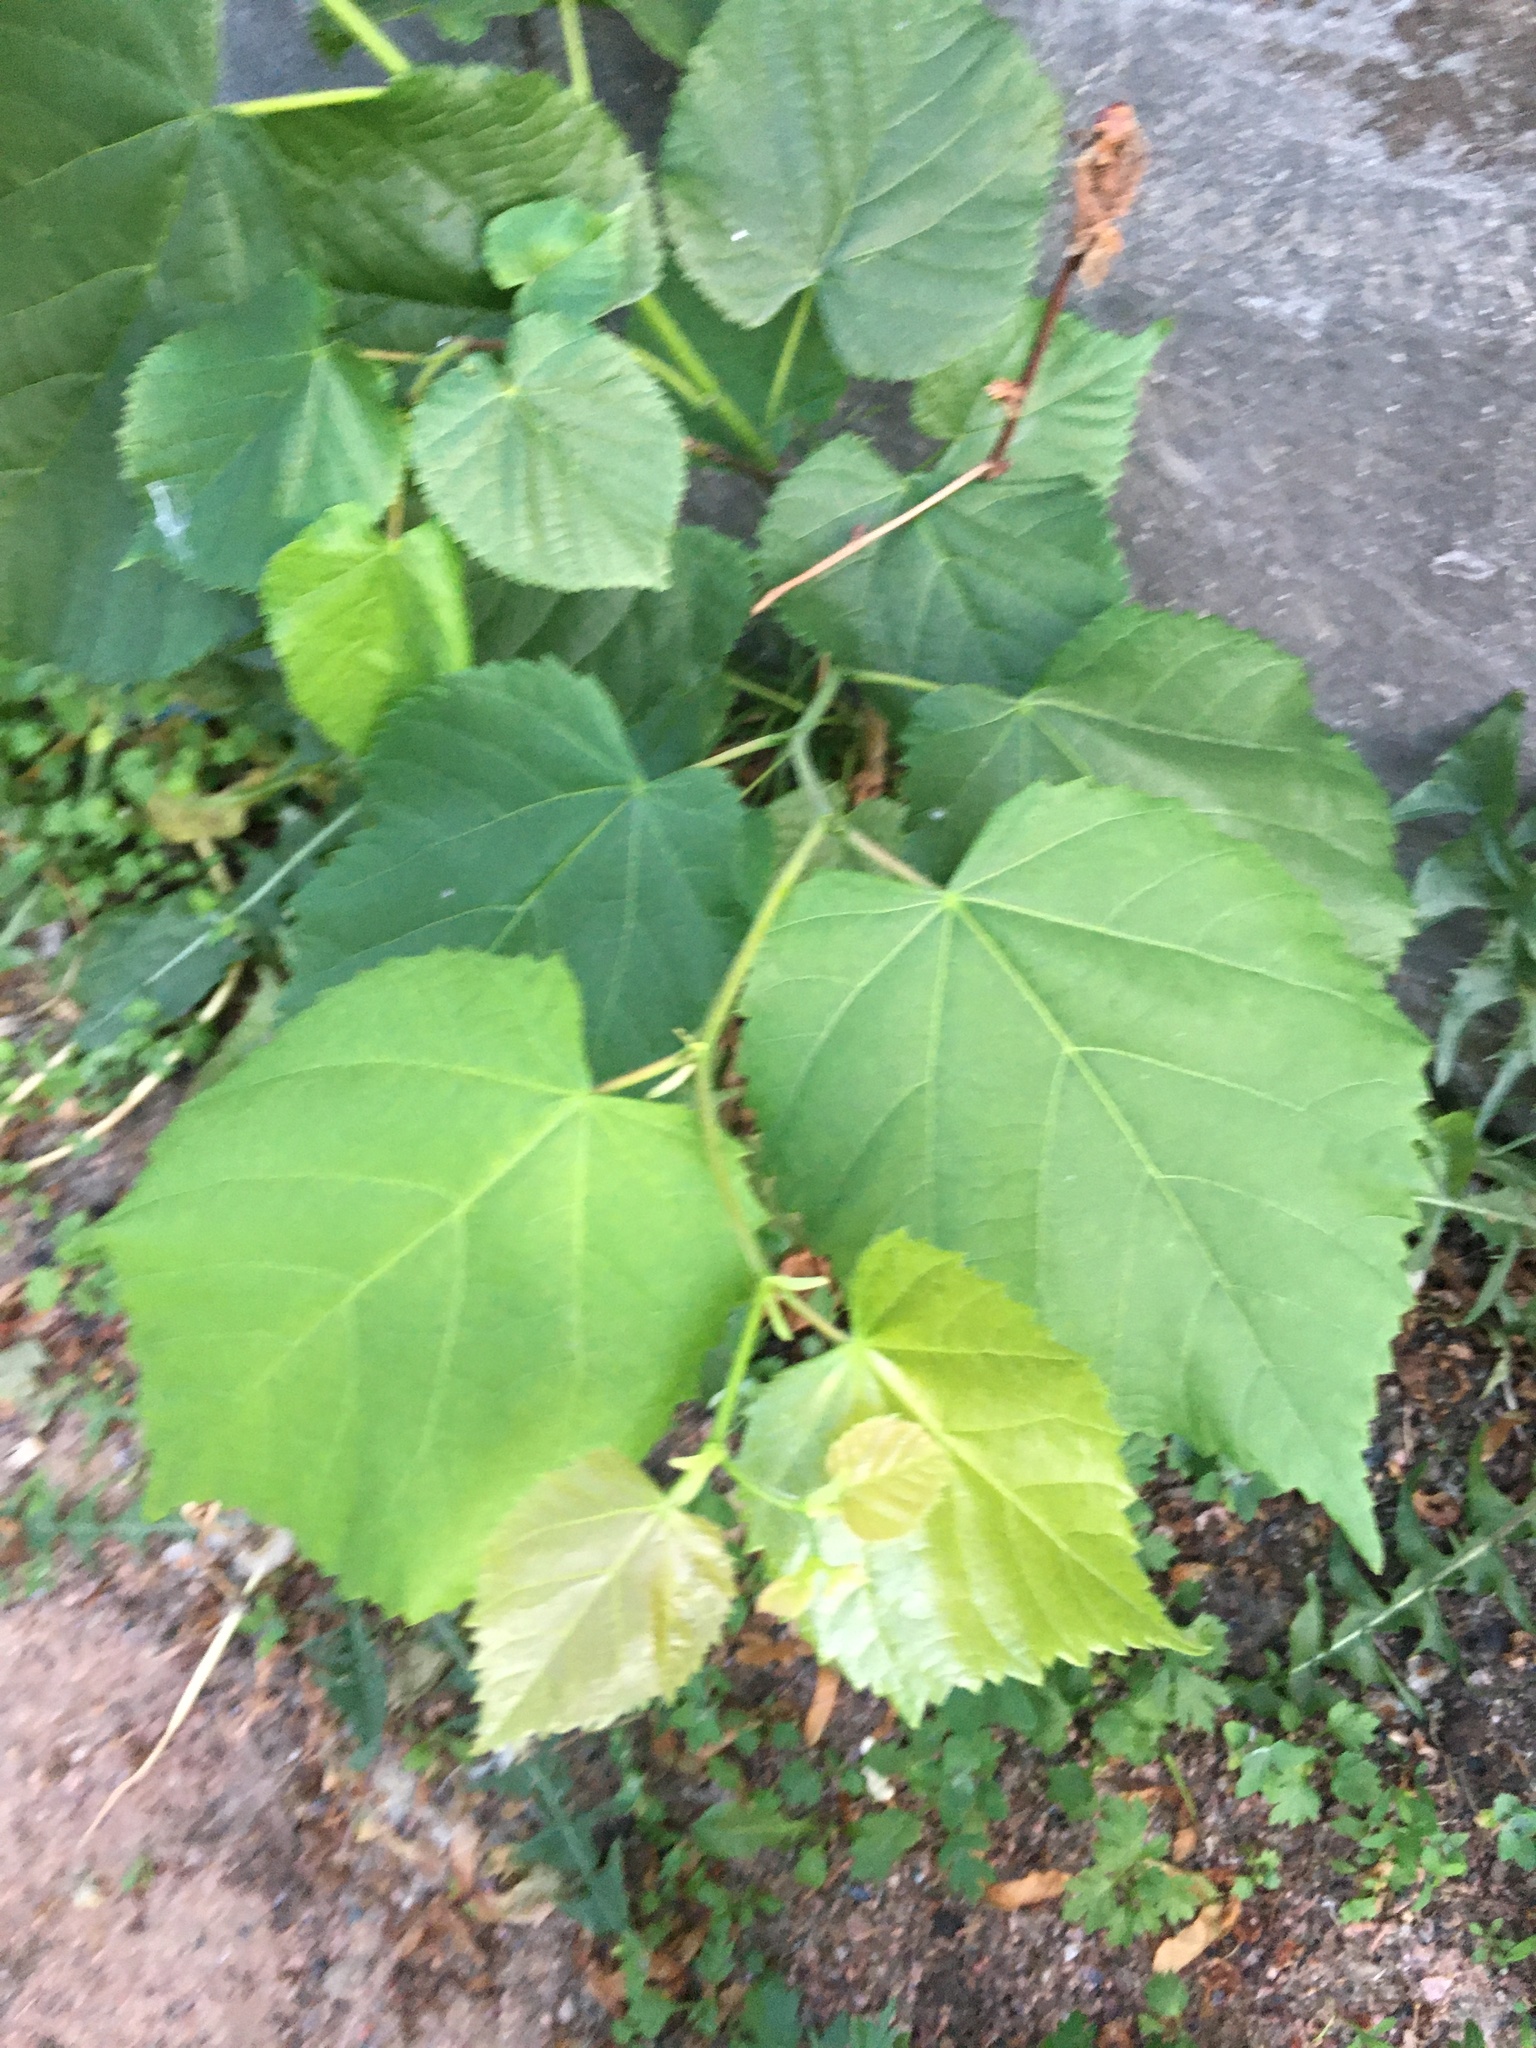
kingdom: Plantae
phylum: Tracheophyta
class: Magnoliopsida
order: Malvales
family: Malvaceae
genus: Tilia
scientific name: Tilia cordata
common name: Small-leaved lime
